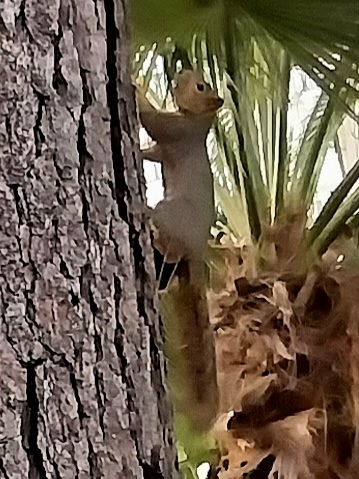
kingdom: Animalia
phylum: Chordata
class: Mammalia
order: Rodentia
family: Sciuridae
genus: Sciurus
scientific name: Sciurus niger
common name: Fox squirrel
